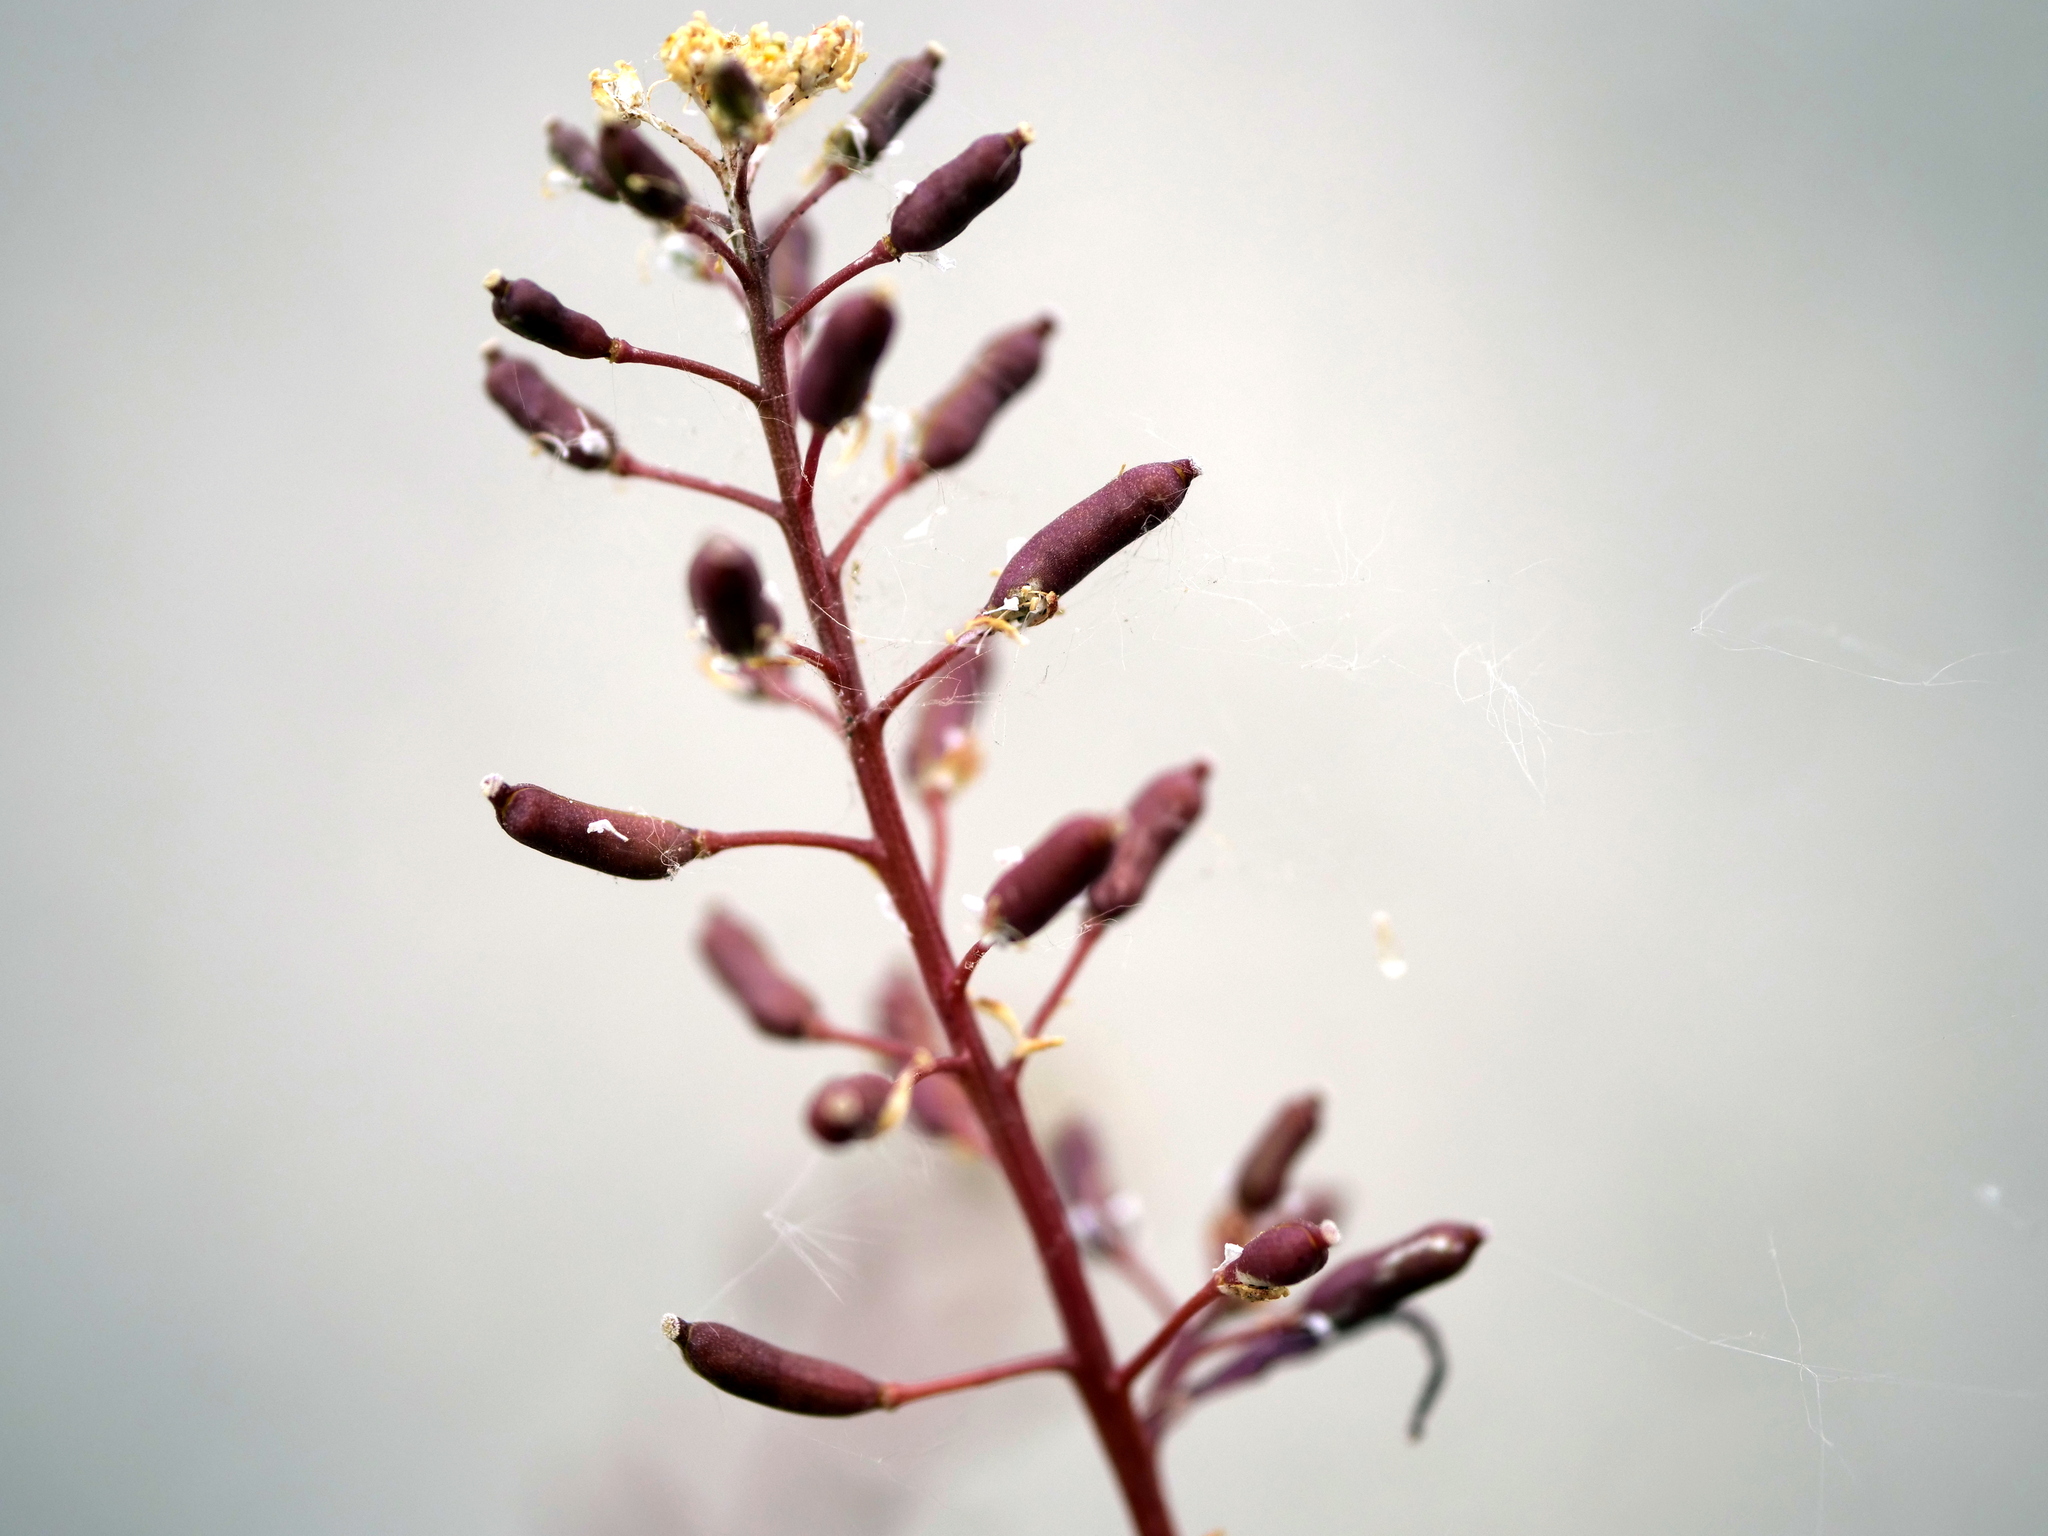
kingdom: Plantae
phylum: Tracheophyta
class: Magnoliopsida
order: Brassicales
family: Brassicaceae
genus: Rorippa
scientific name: Rorippa palustris
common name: Marsh yellow-cress
